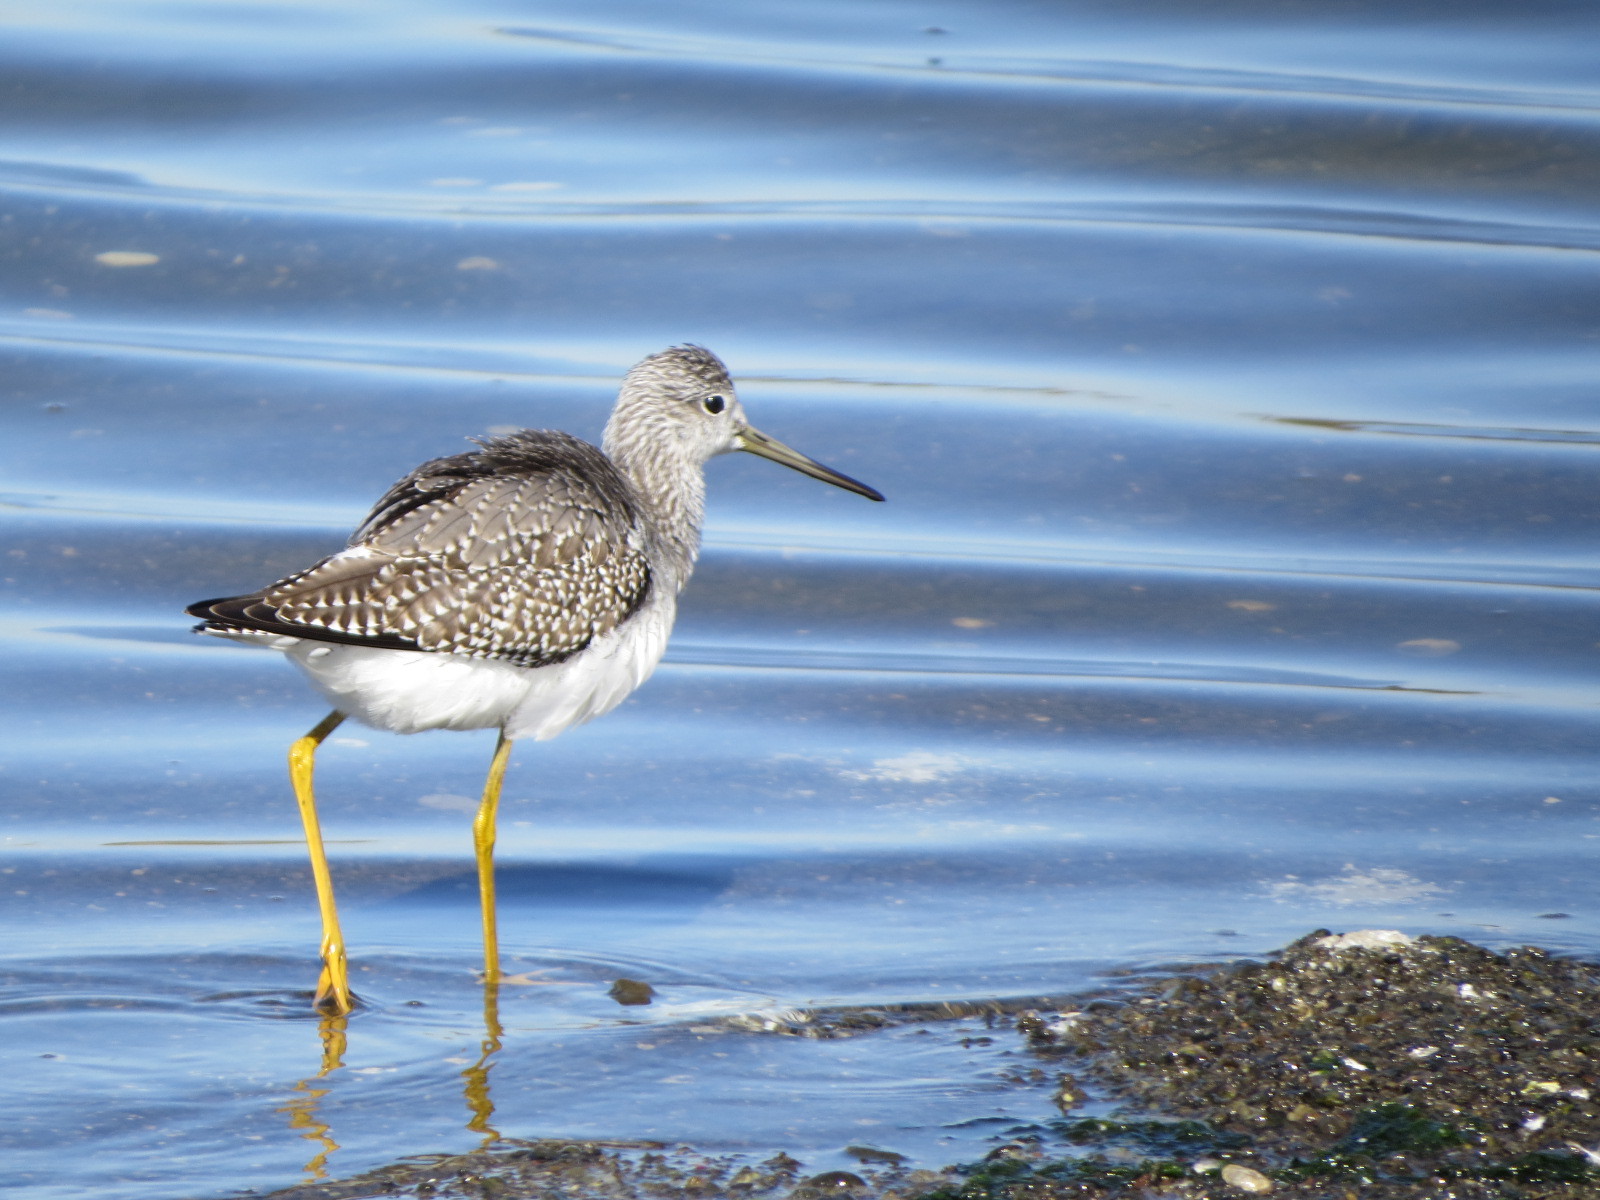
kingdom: Animalia
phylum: Chordata
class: Aves
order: Charadriiformes
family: Scolopacidae
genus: Tringa
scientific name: Tringa melanoleuca
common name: Greater yellowlegs
